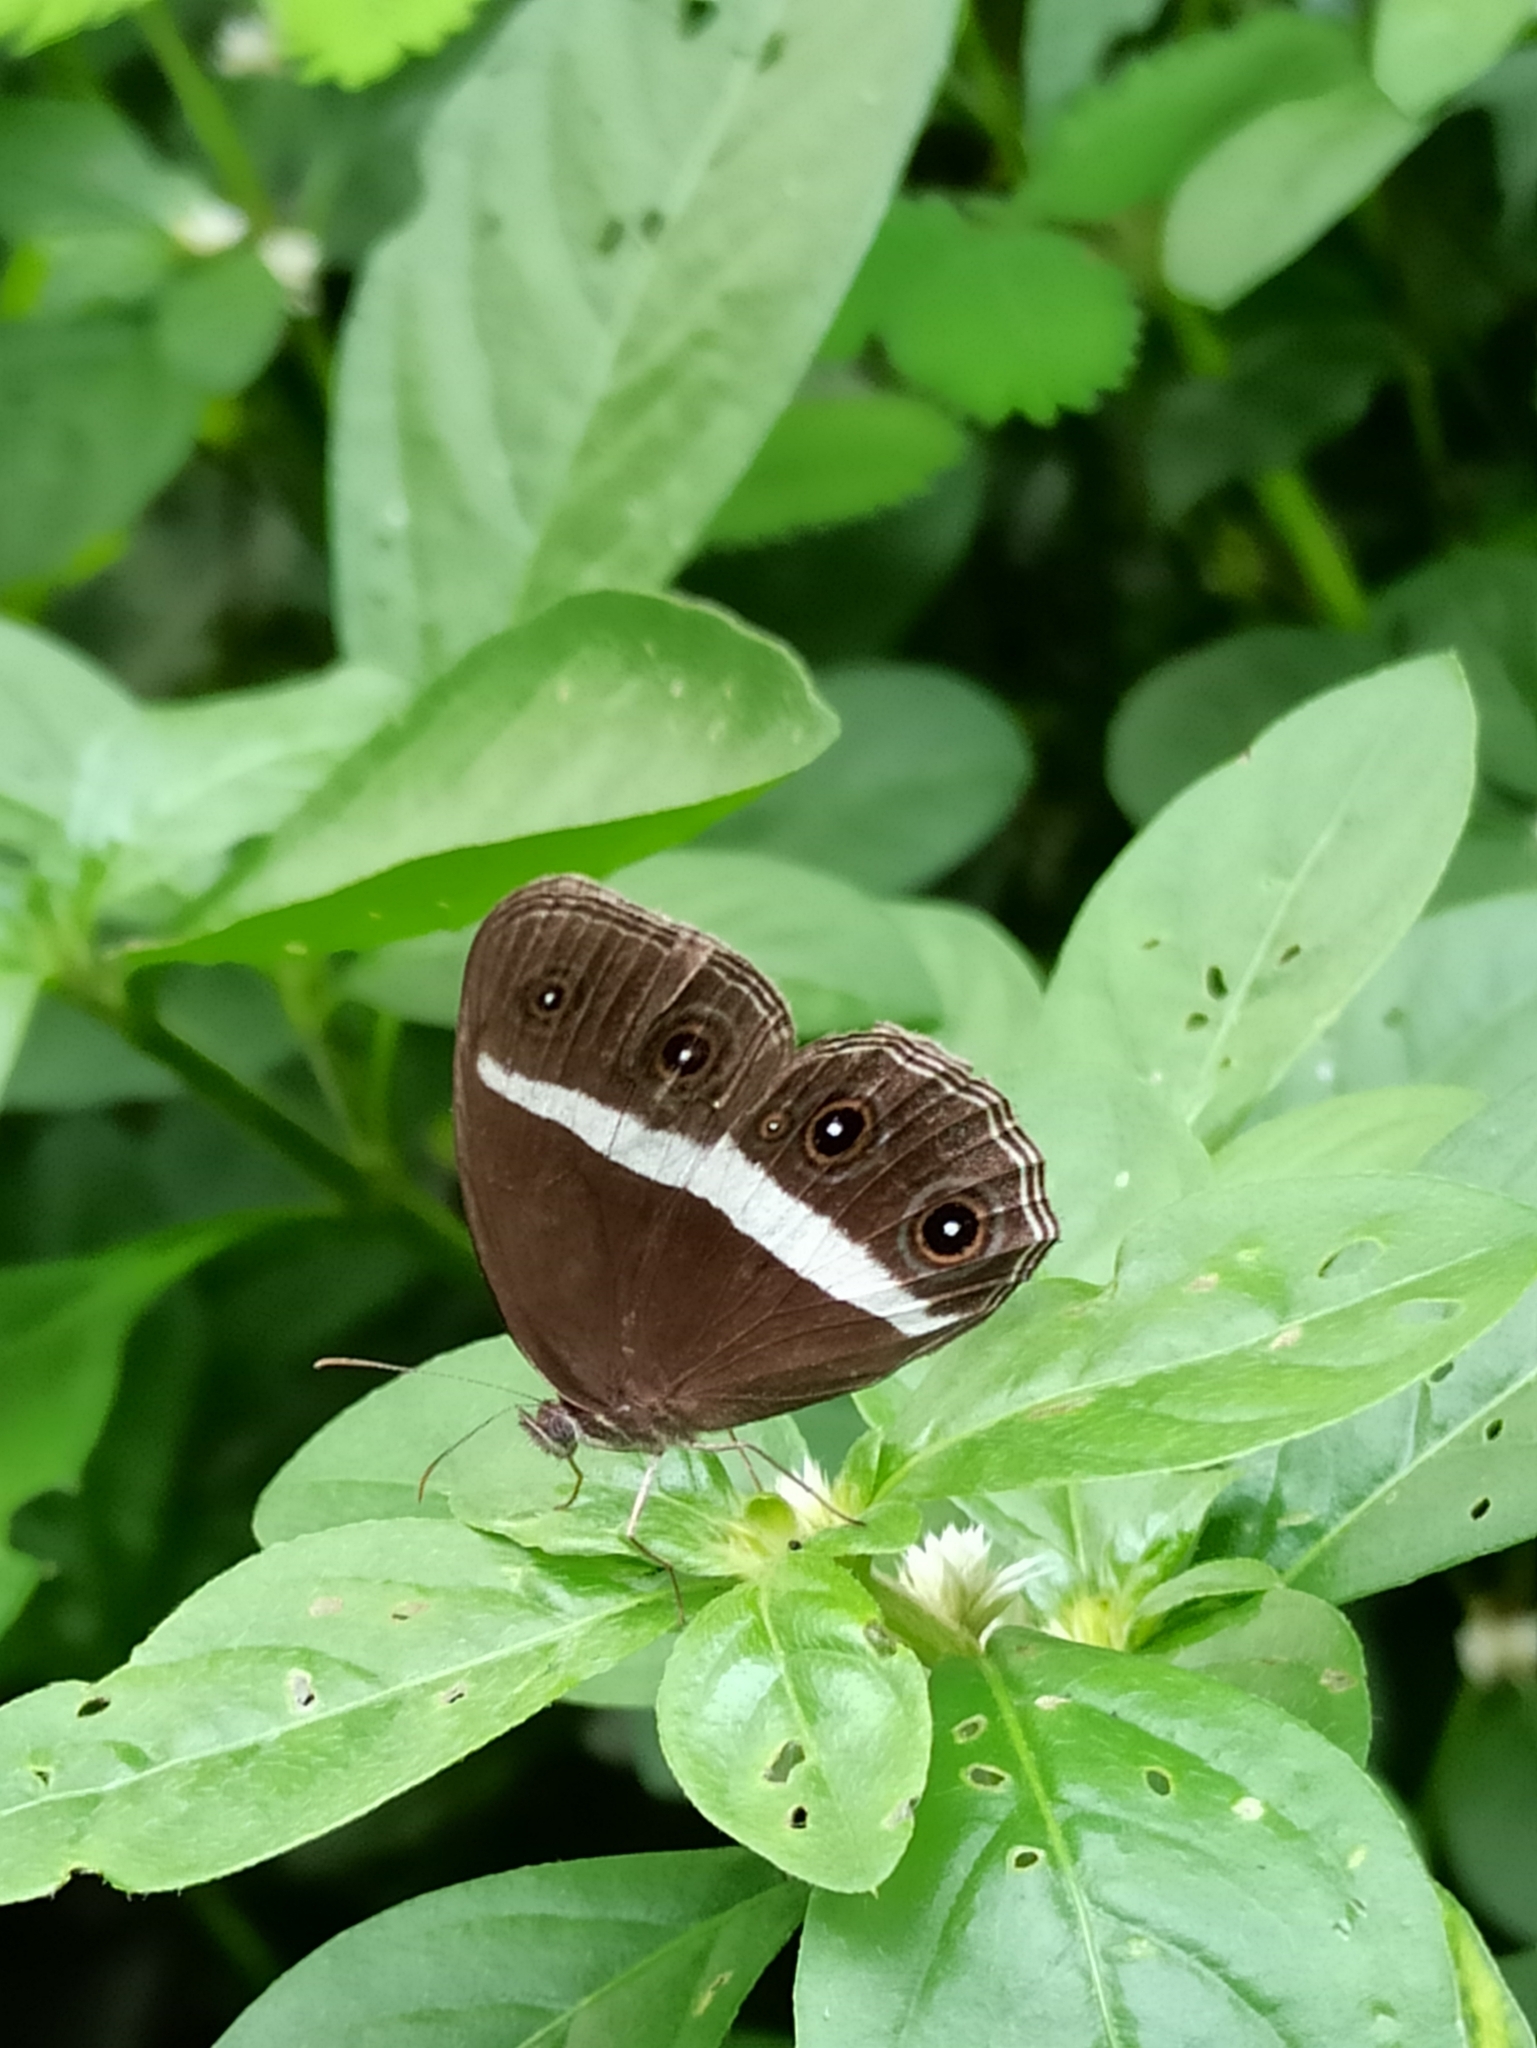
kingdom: Animalia
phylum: Arthropoda
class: Insecta
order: Lepidoptera
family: Nymphalidae
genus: Orsotriaena
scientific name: Orsotriaena medus
